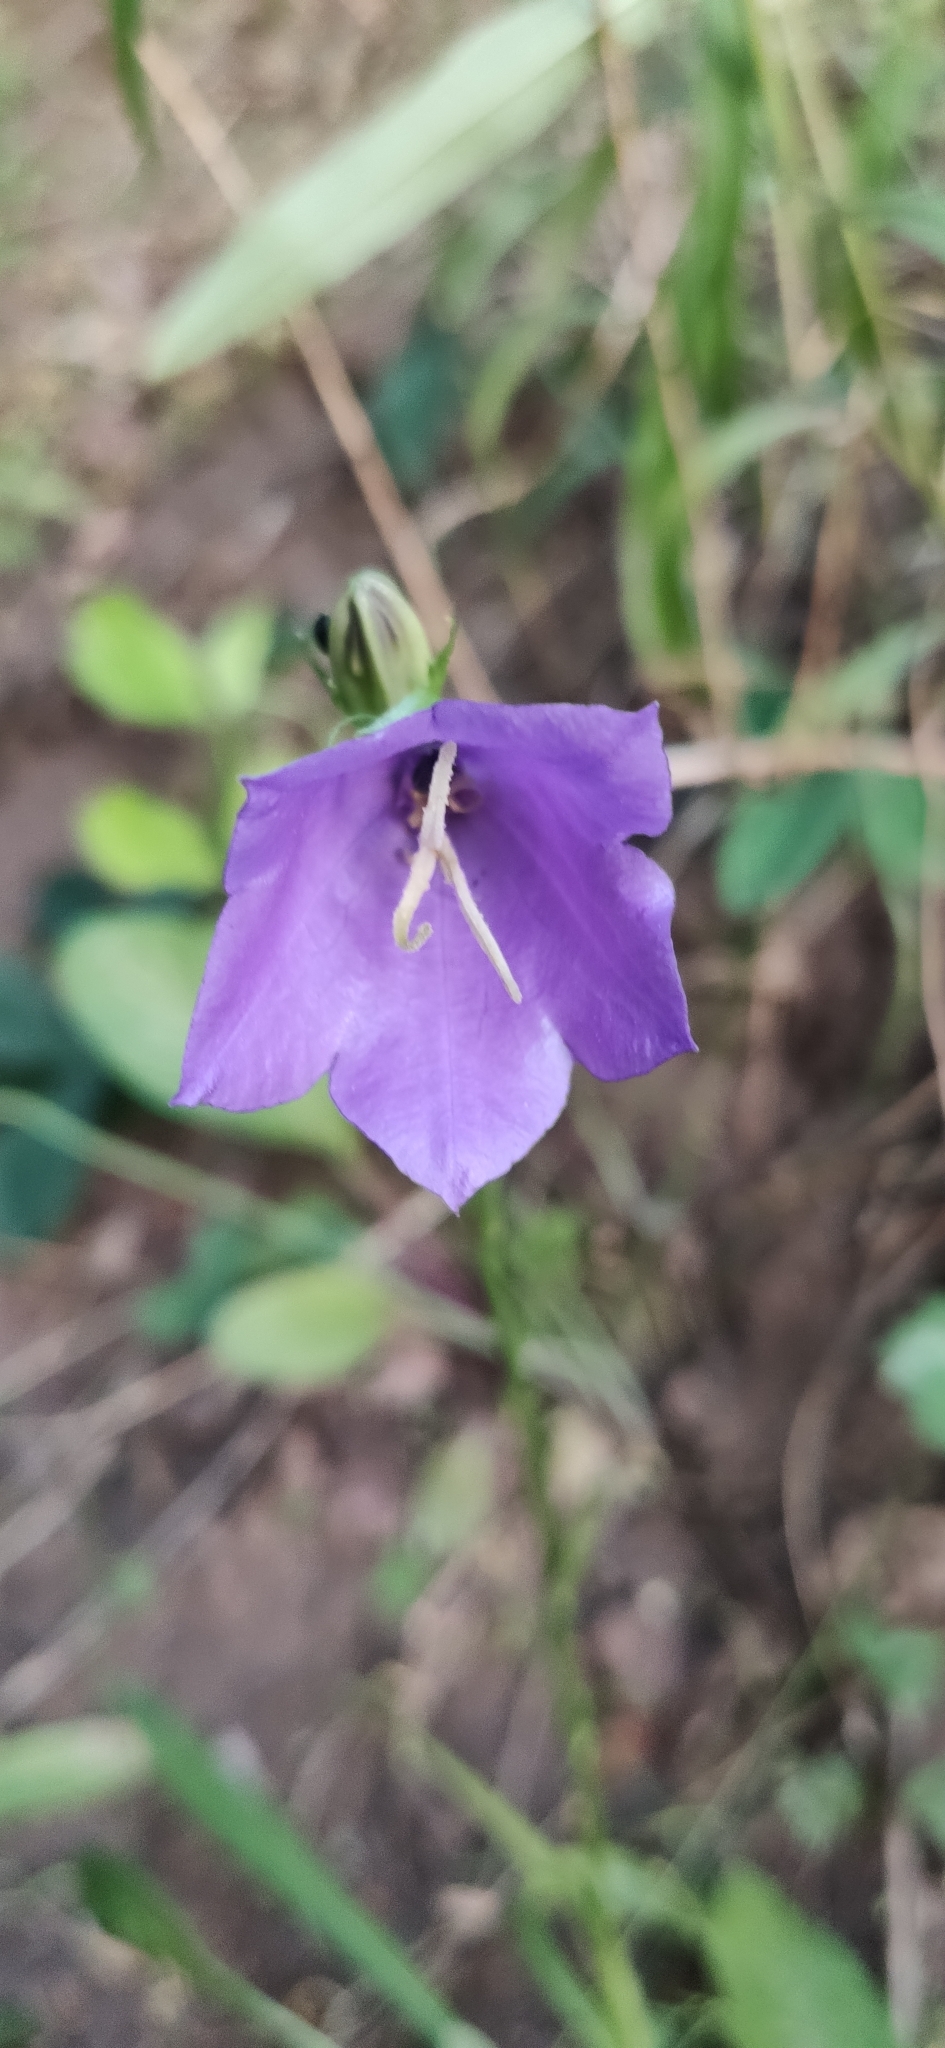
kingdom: Plantae
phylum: Tracheophyta
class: Magnoliopsida
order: Asterales
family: Campanulaceae
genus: Campanula
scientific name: Campanula persicifolia
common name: Peach-leaved bellflower
